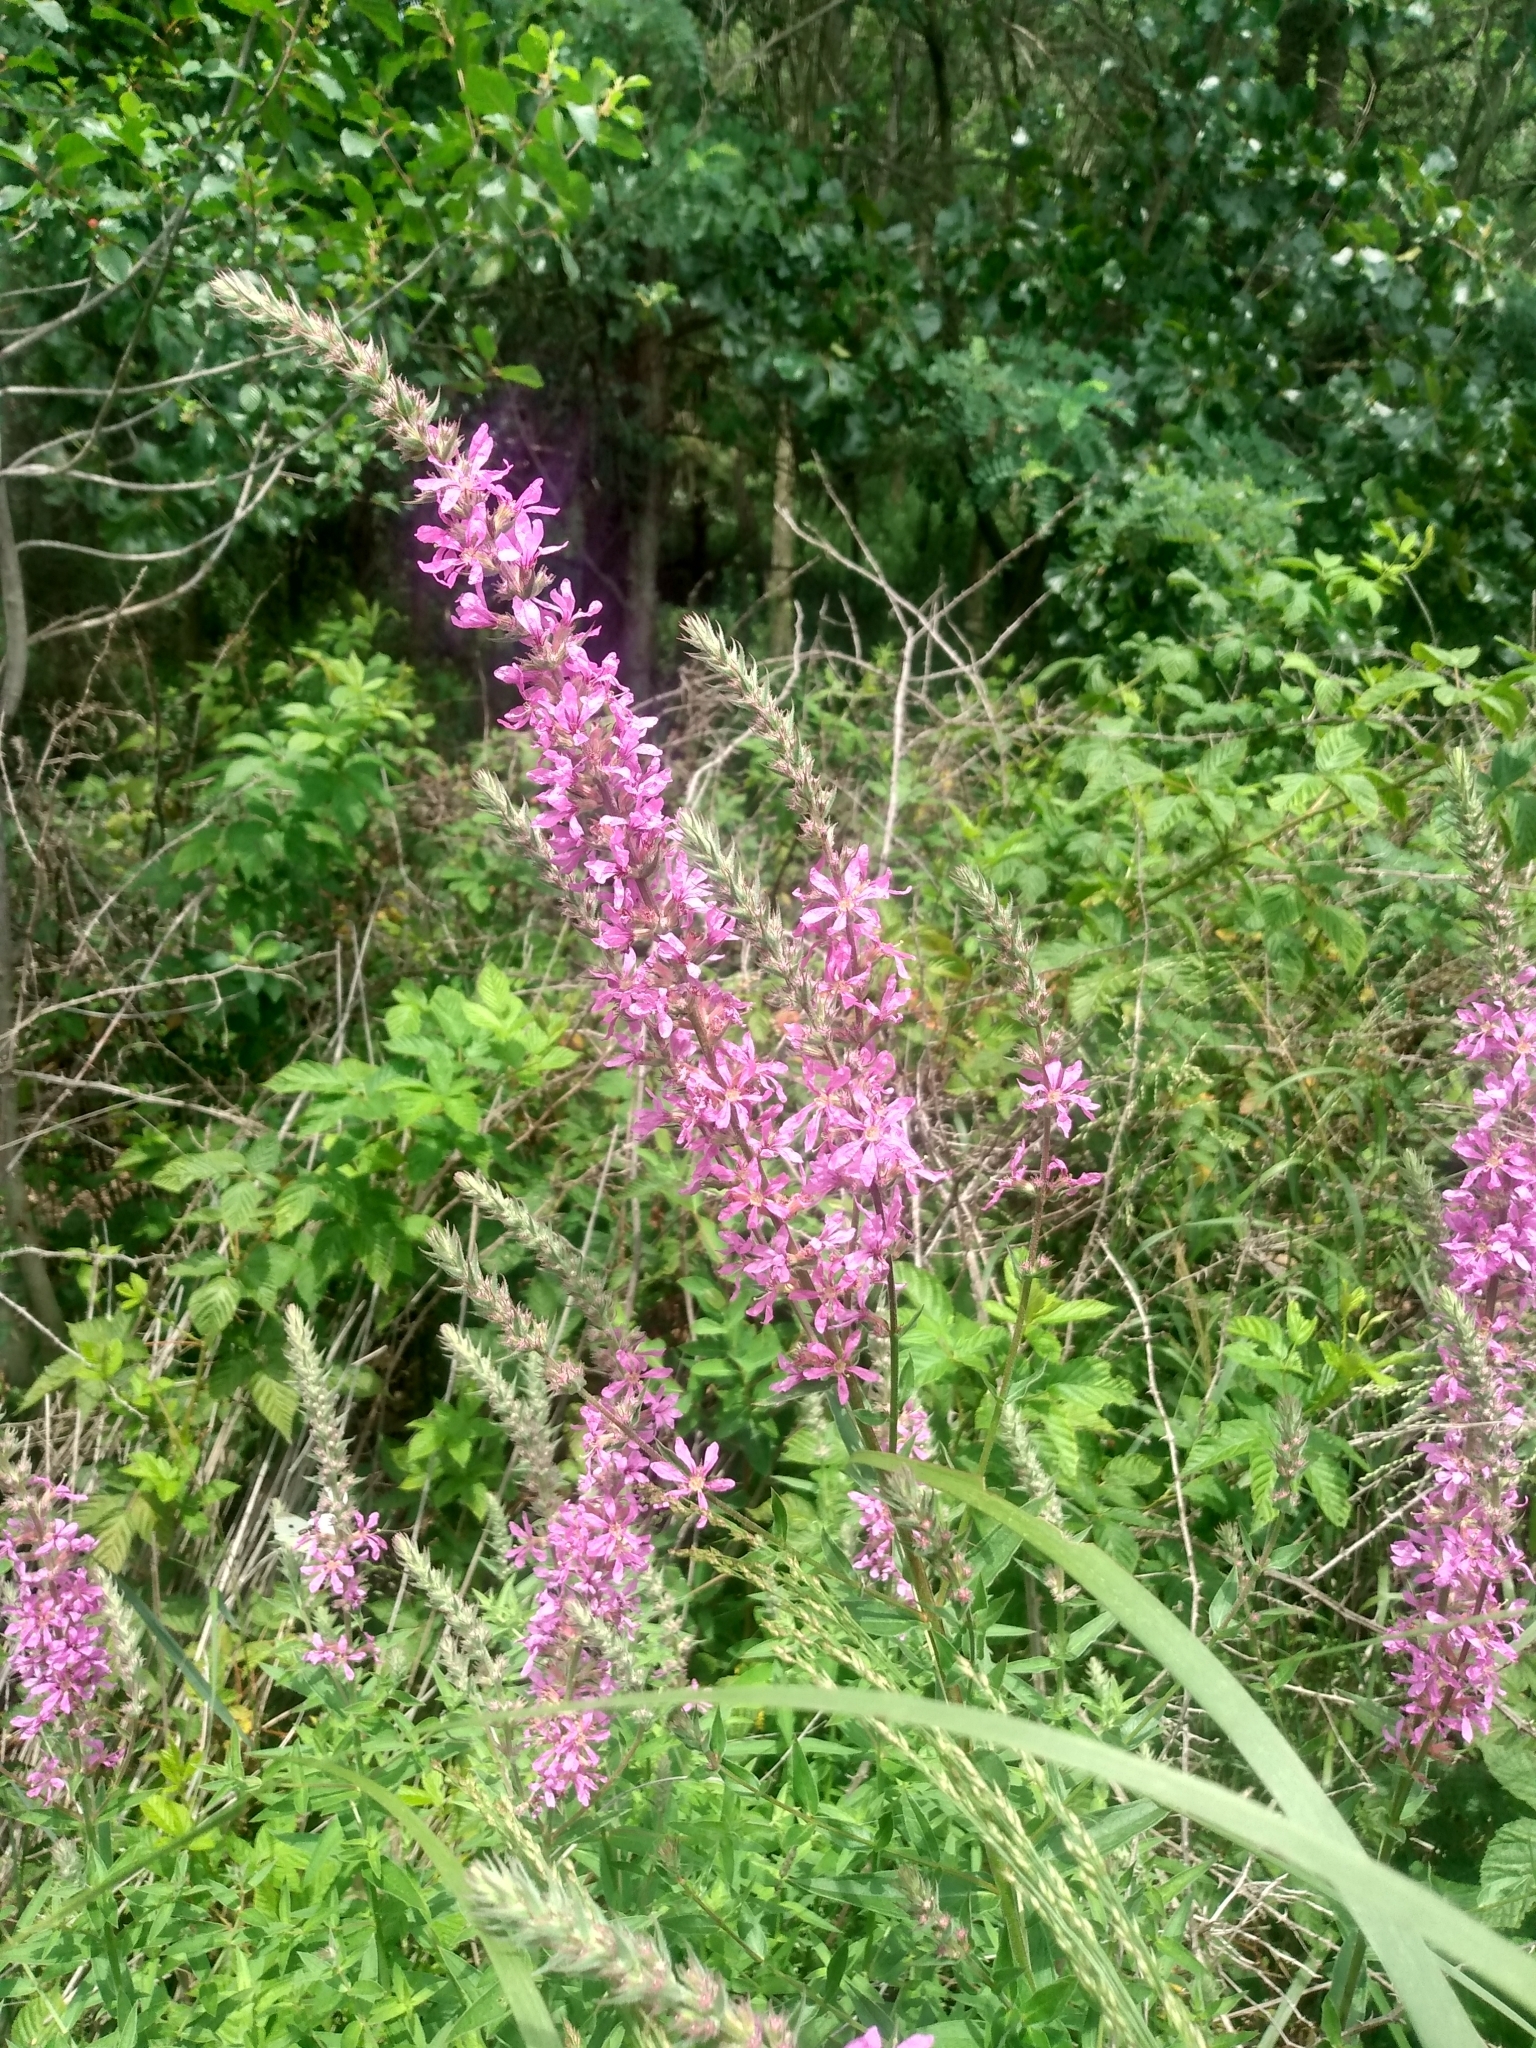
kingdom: Plantae
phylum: Tracheophyta
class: Magnoliopsida
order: Myrtales
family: Lythraceae
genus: Lythrum
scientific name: Lythrum salicaria
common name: Purple loosestrife
